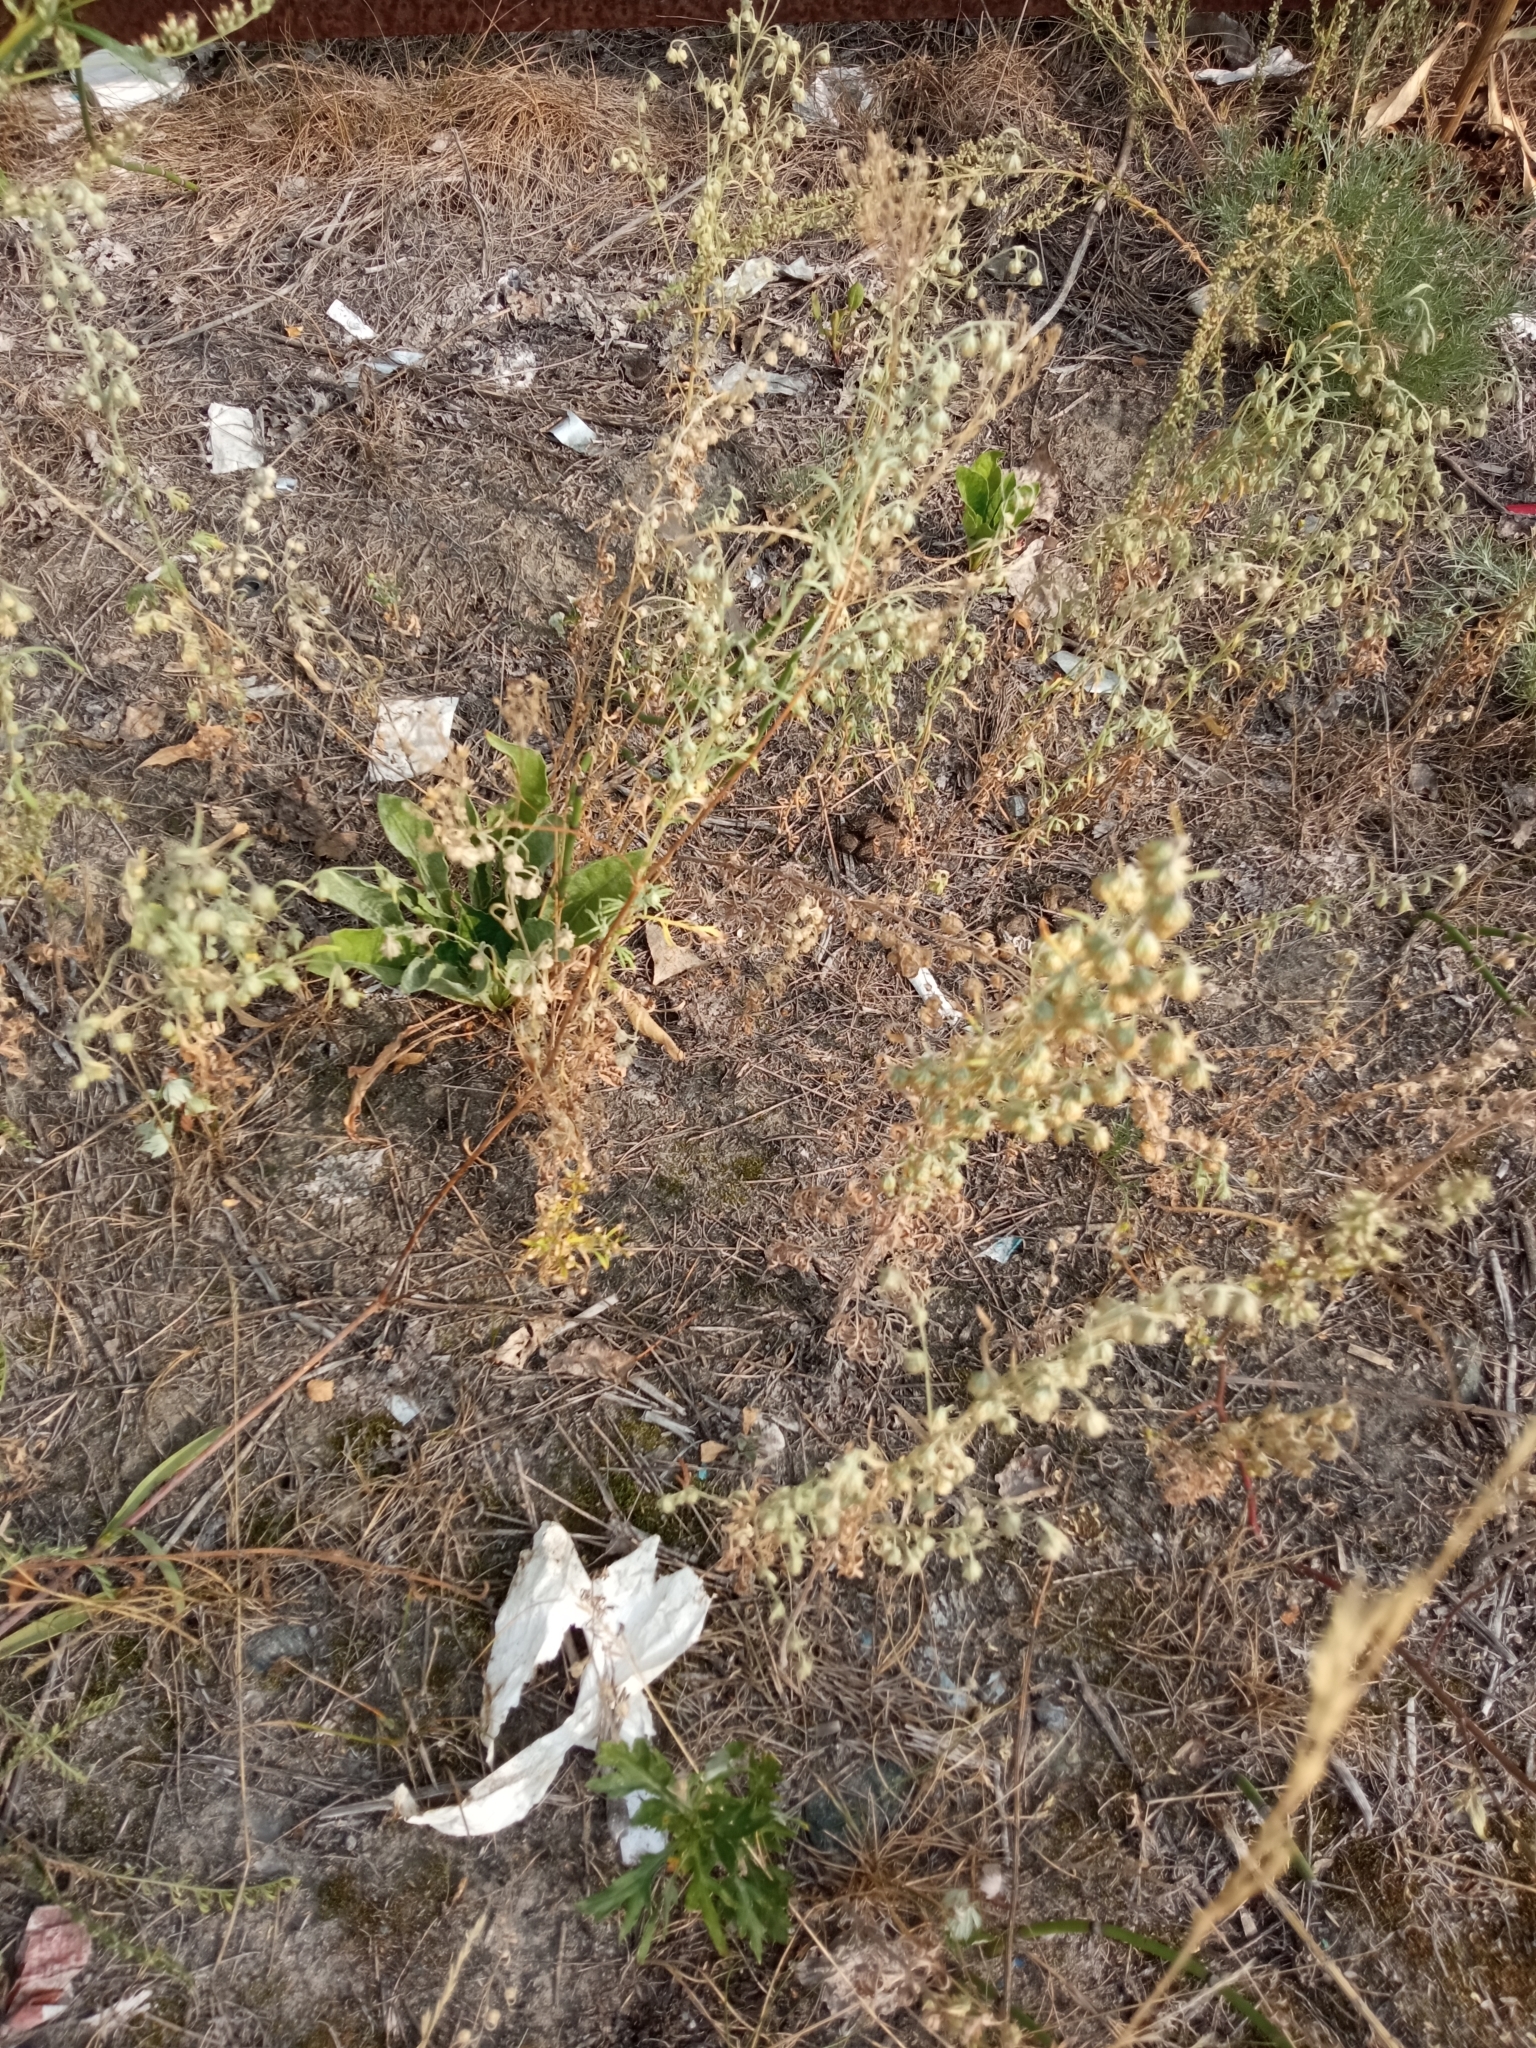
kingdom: Plantae
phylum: Tracheophyta
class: Magnoliopsida
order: Asterales
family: Asteraceae
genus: Artemisia
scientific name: Artemisia sieversiana
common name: Sieversian wormwood
